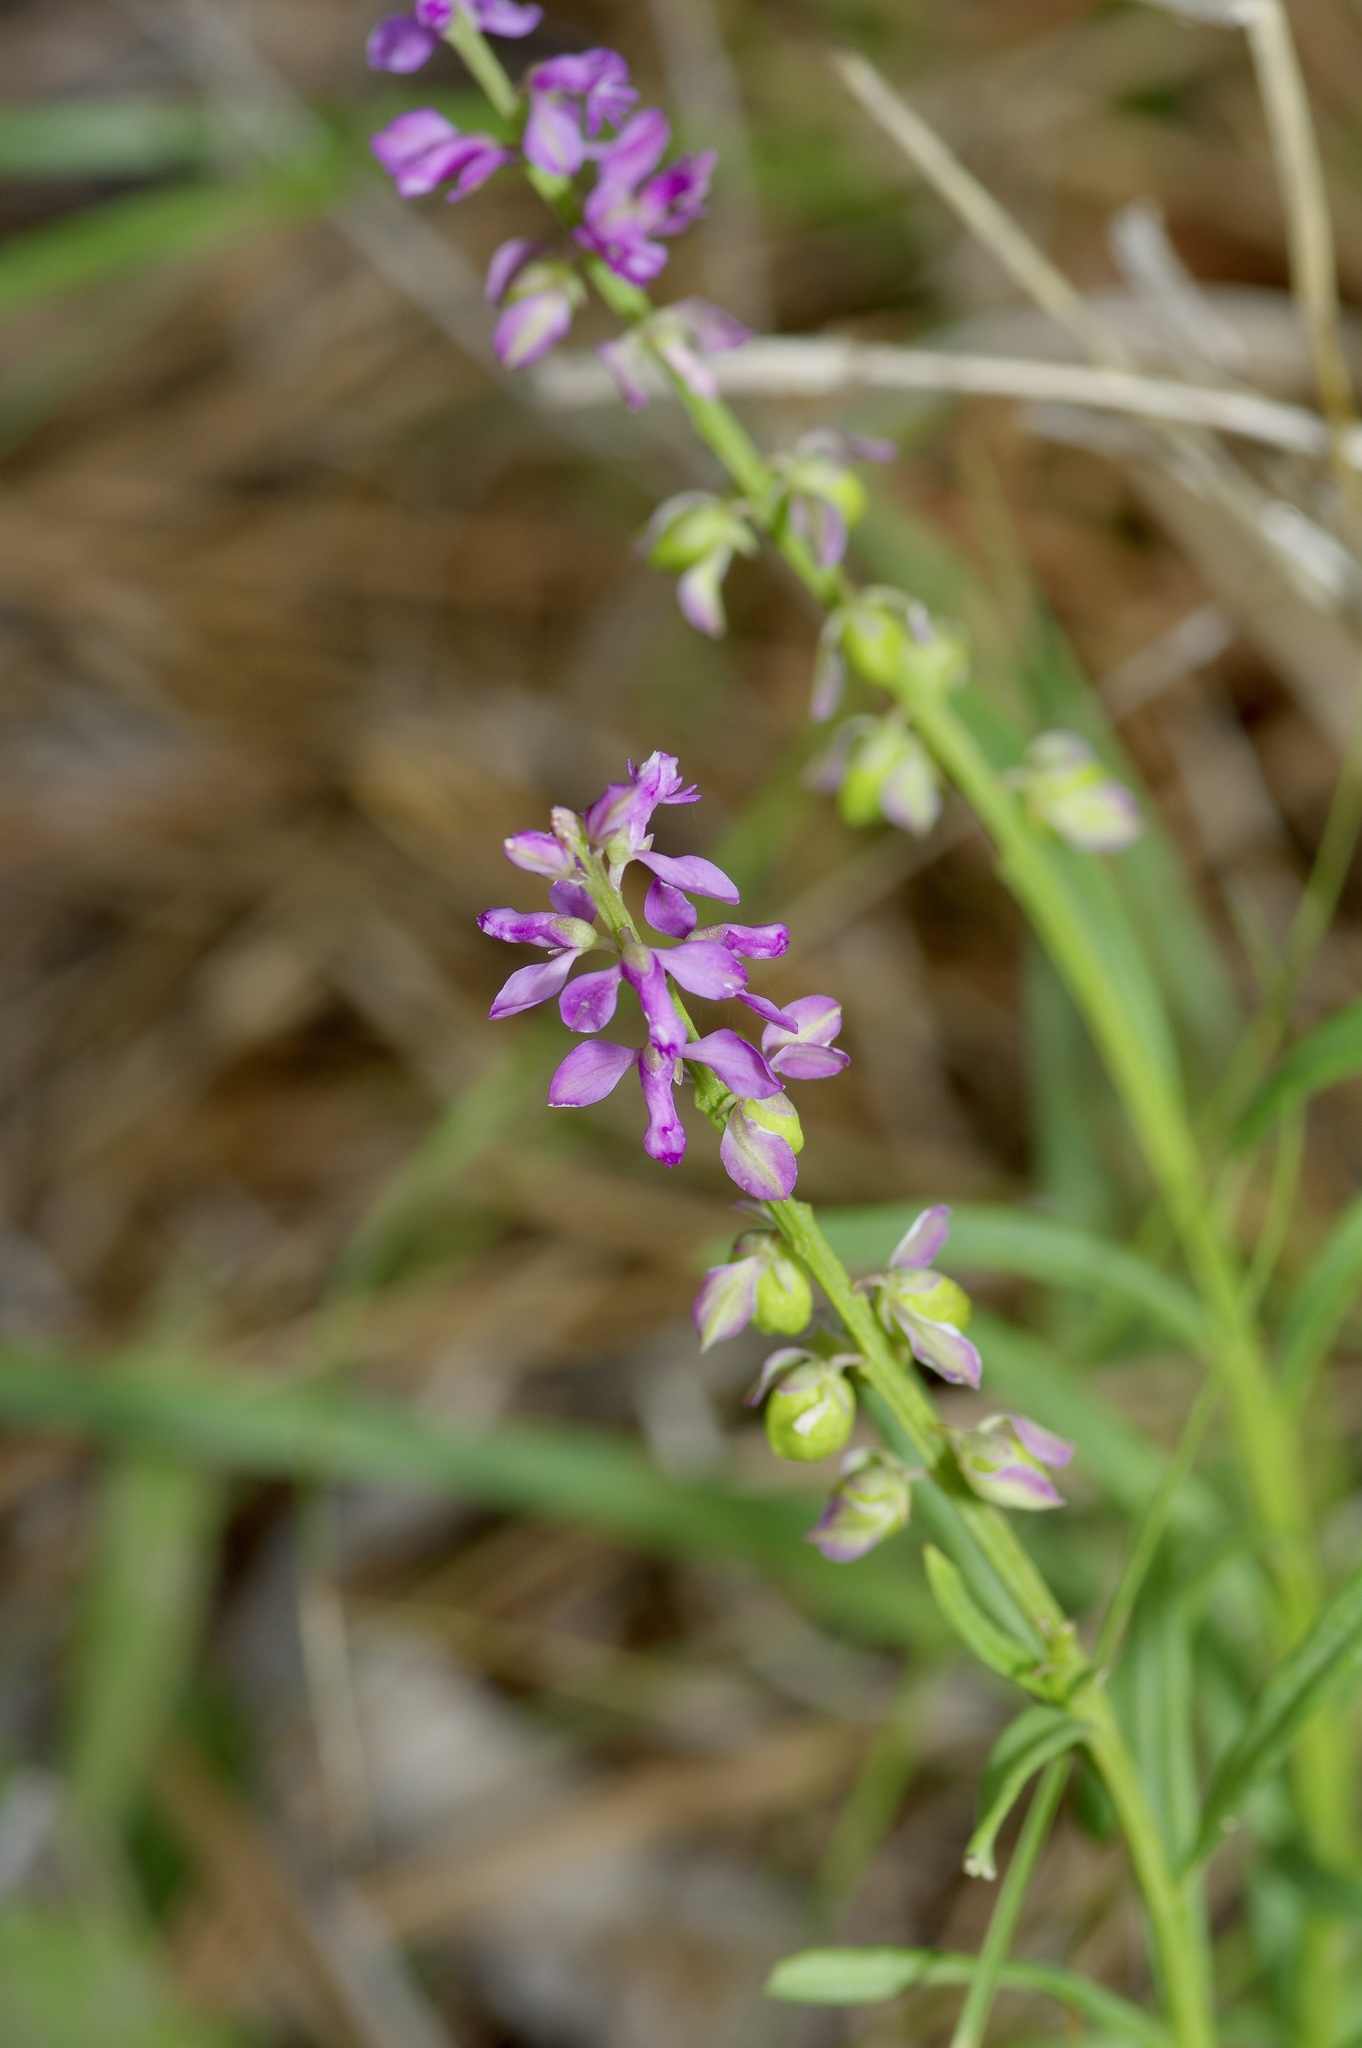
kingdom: Plantae
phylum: Tracheophyta
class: Magnoliopsida
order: Fabales
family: Polygalaceae
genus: Polygala
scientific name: Polygala polygama
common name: Bitter milkwort
